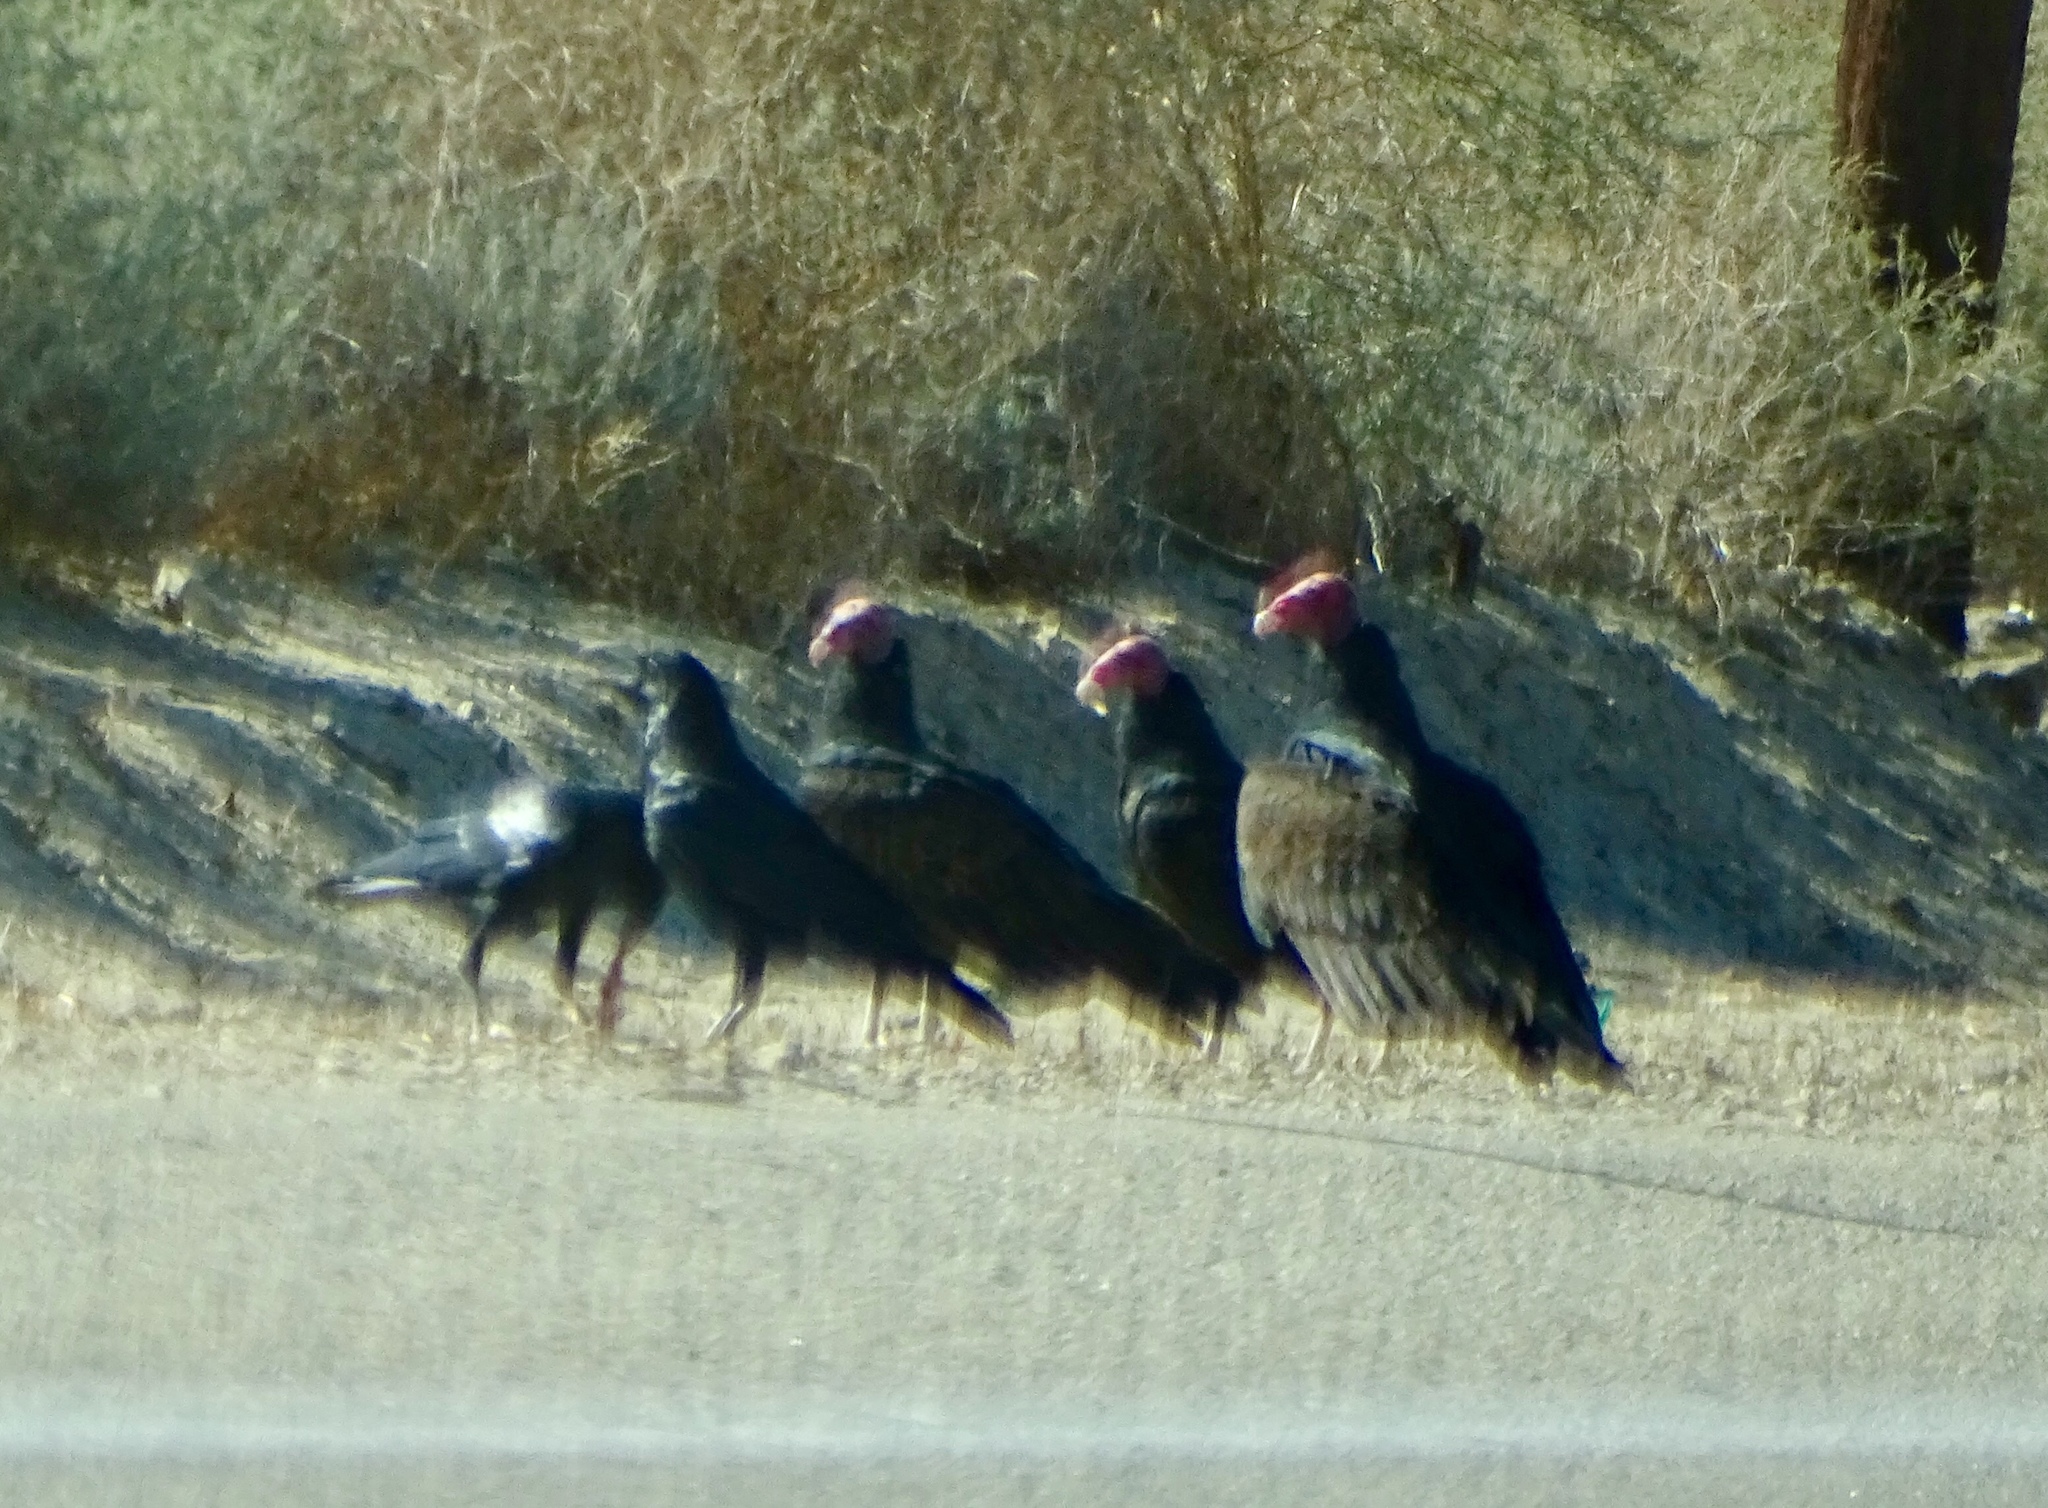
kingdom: Animalia
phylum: Chordata
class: Aves
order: Accipitriformes
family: Cathartidae
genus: Cathartes
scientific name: Cathartes aura
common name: Turkey vulture
